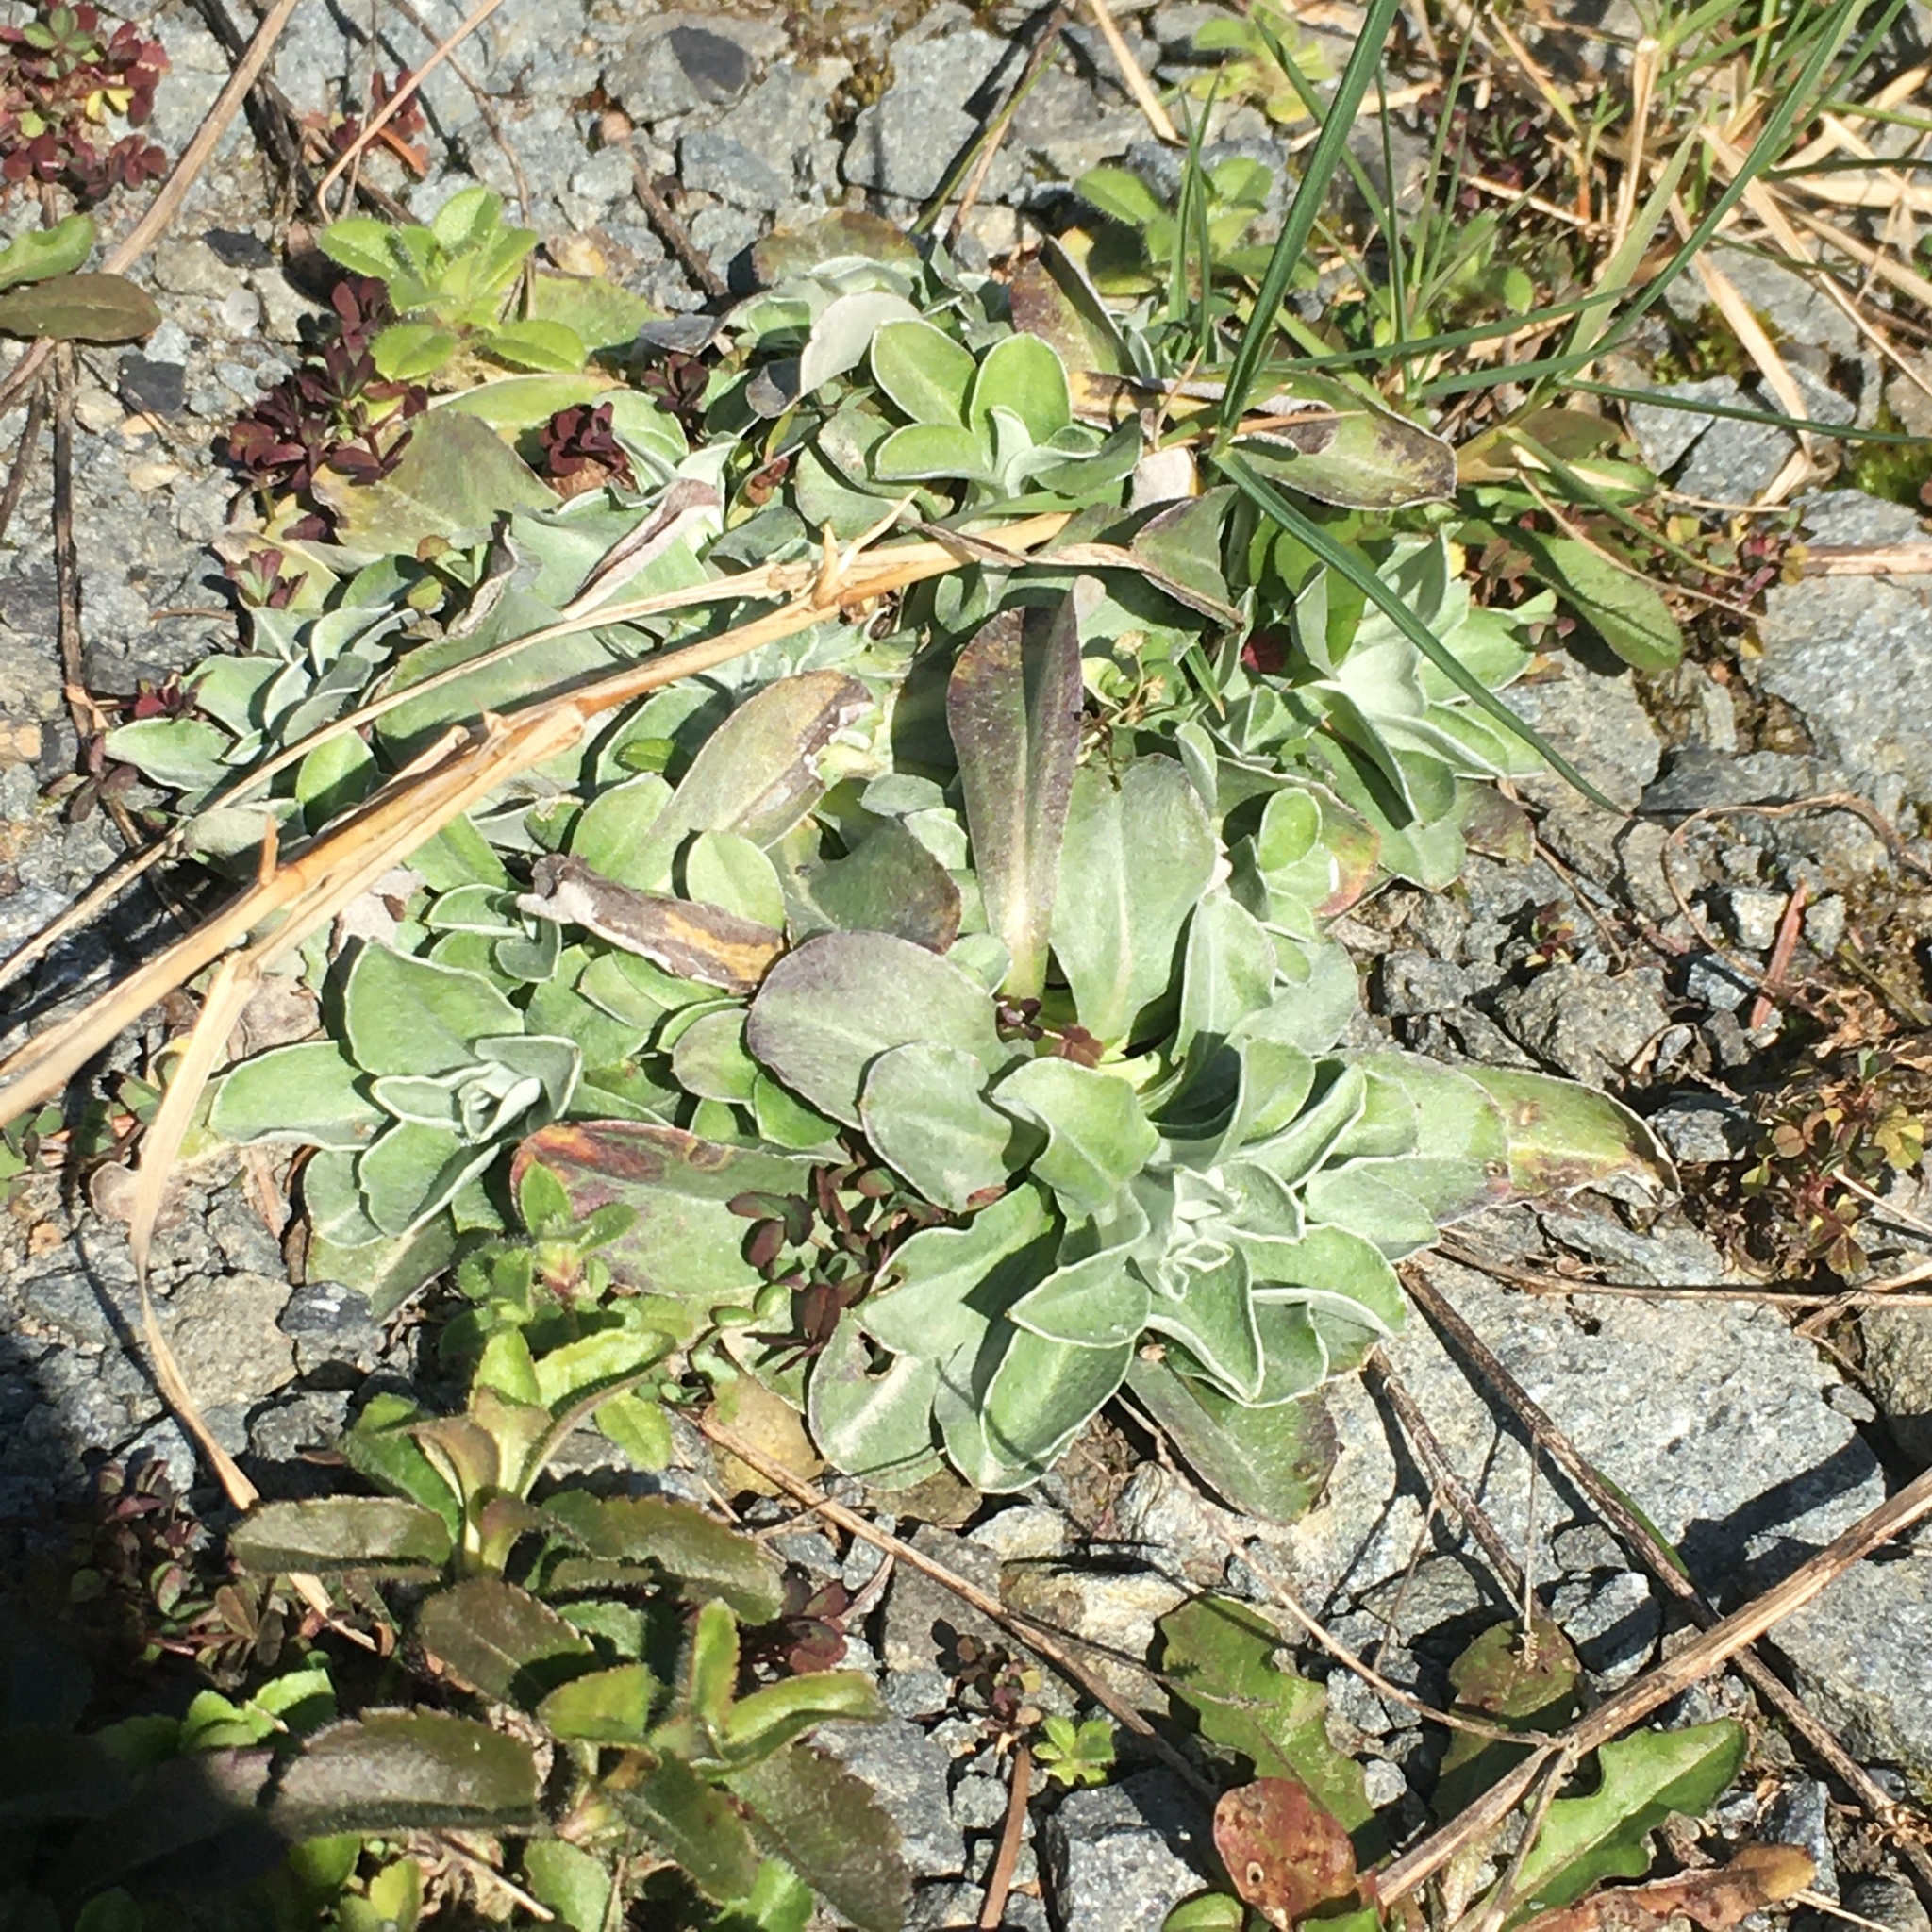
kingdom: Plantae
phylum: Tracheophyta
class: Magnoliopsida
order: Asterales
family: Asteraceae
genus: Gamochaeta
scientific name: Gamochaeta ustulata
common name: Pacific cudweed
